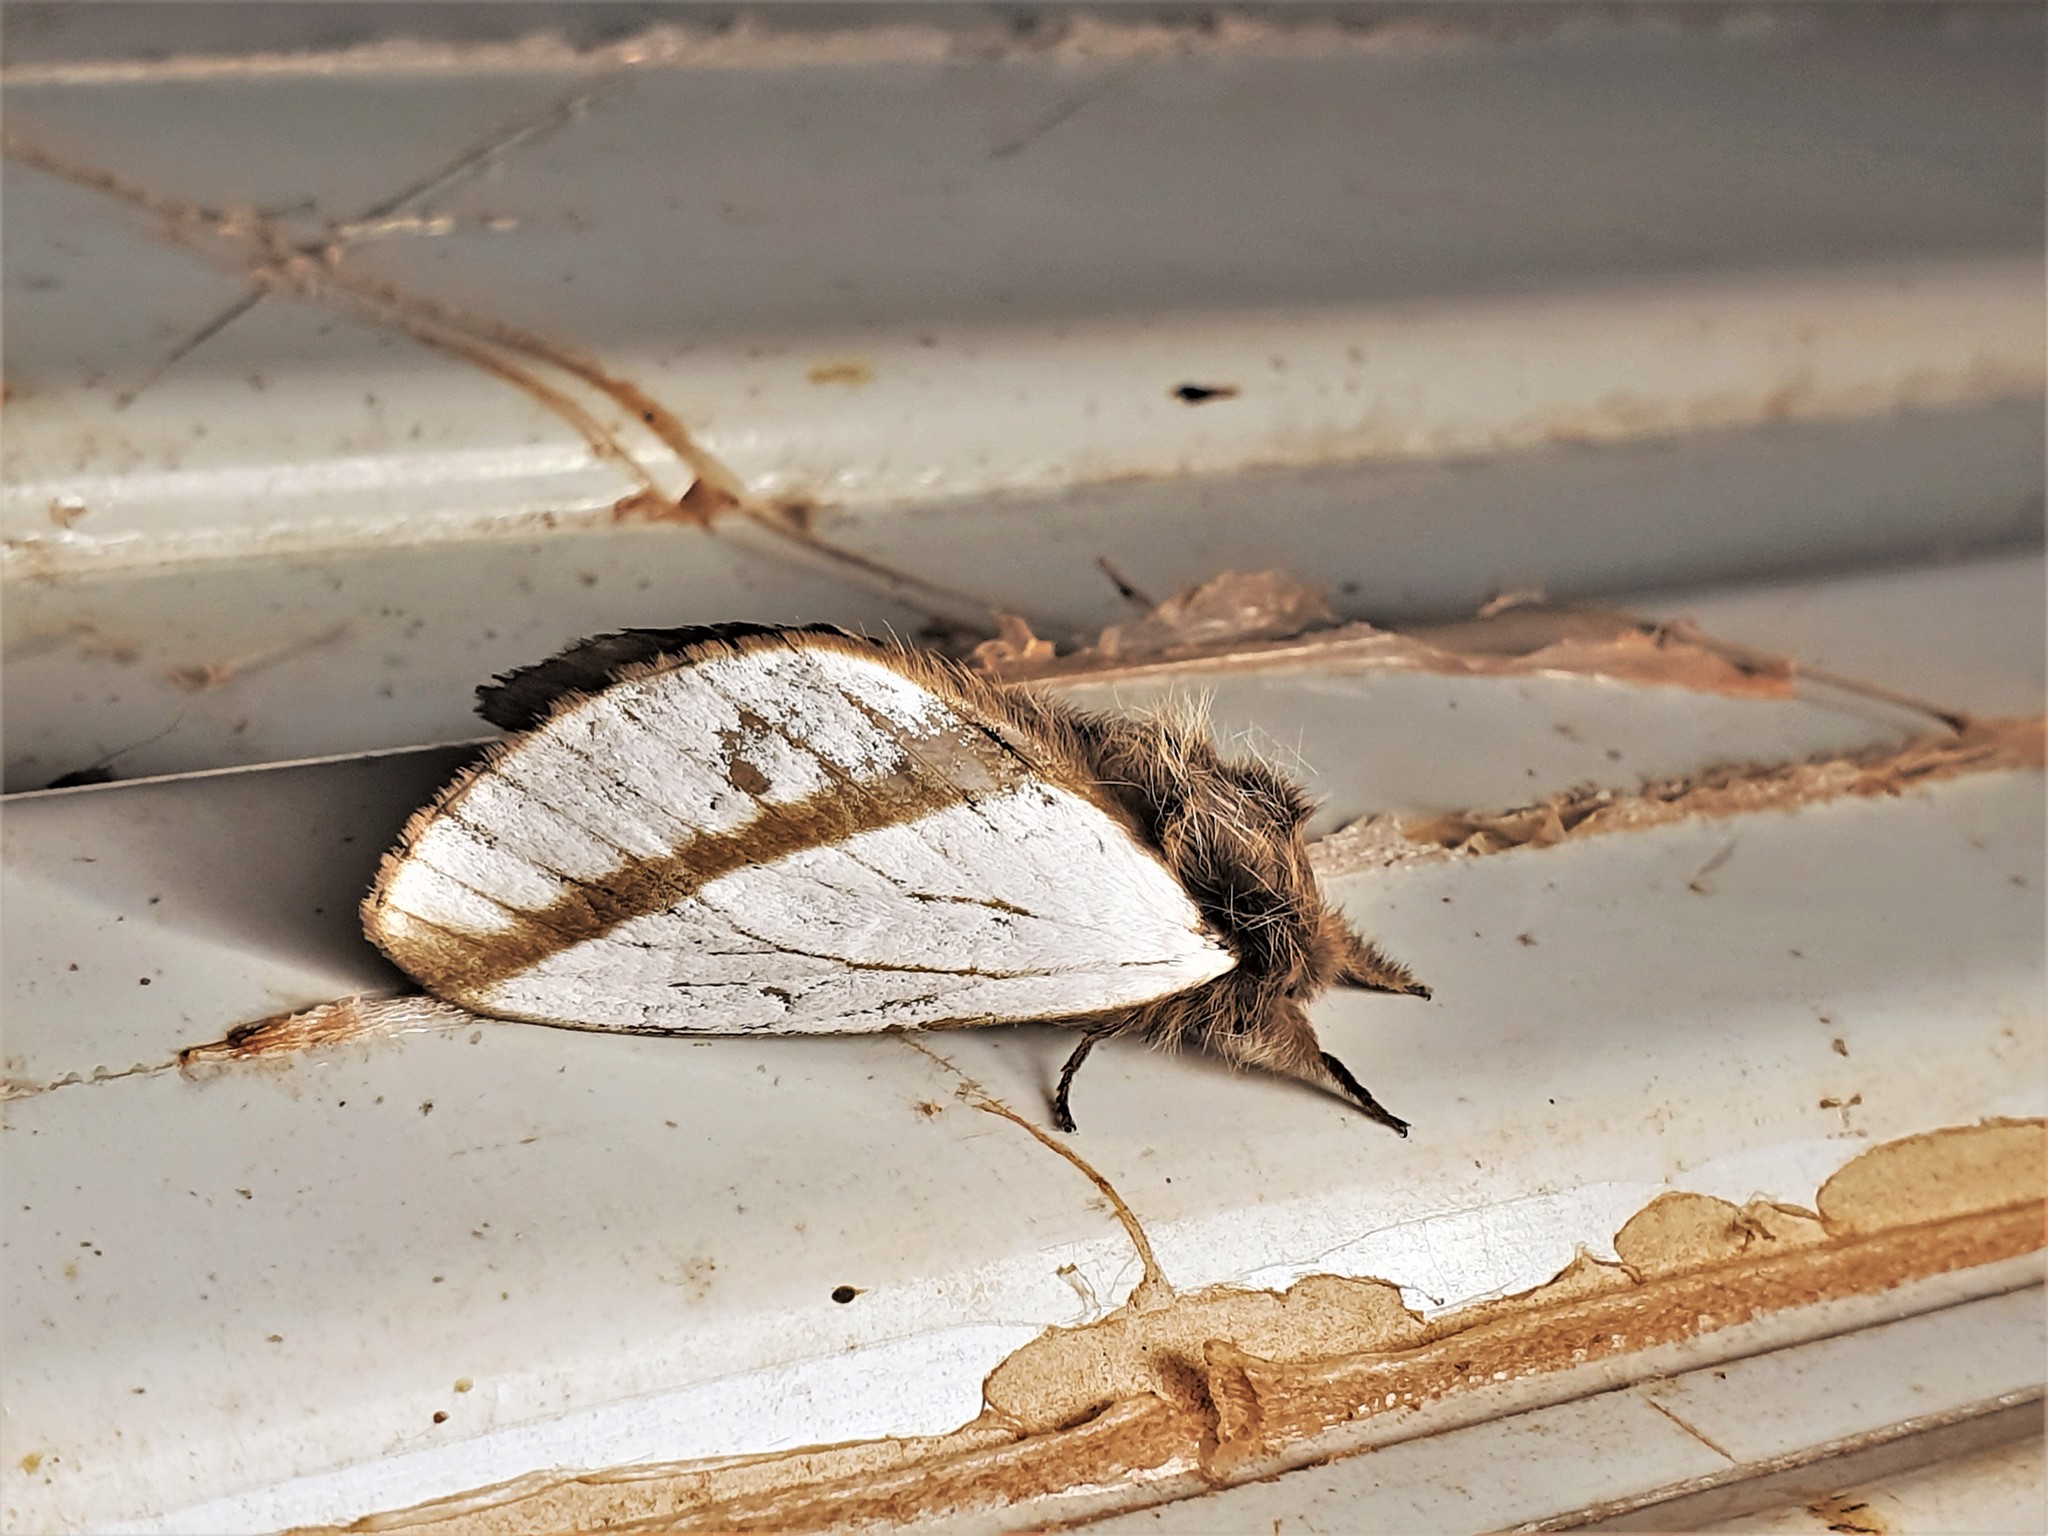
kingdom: Animalia
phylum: Arthropoda
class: Insecta
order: Lepidoptera
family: Lasiocampidae
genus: Titya
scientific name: Titya noctilux
